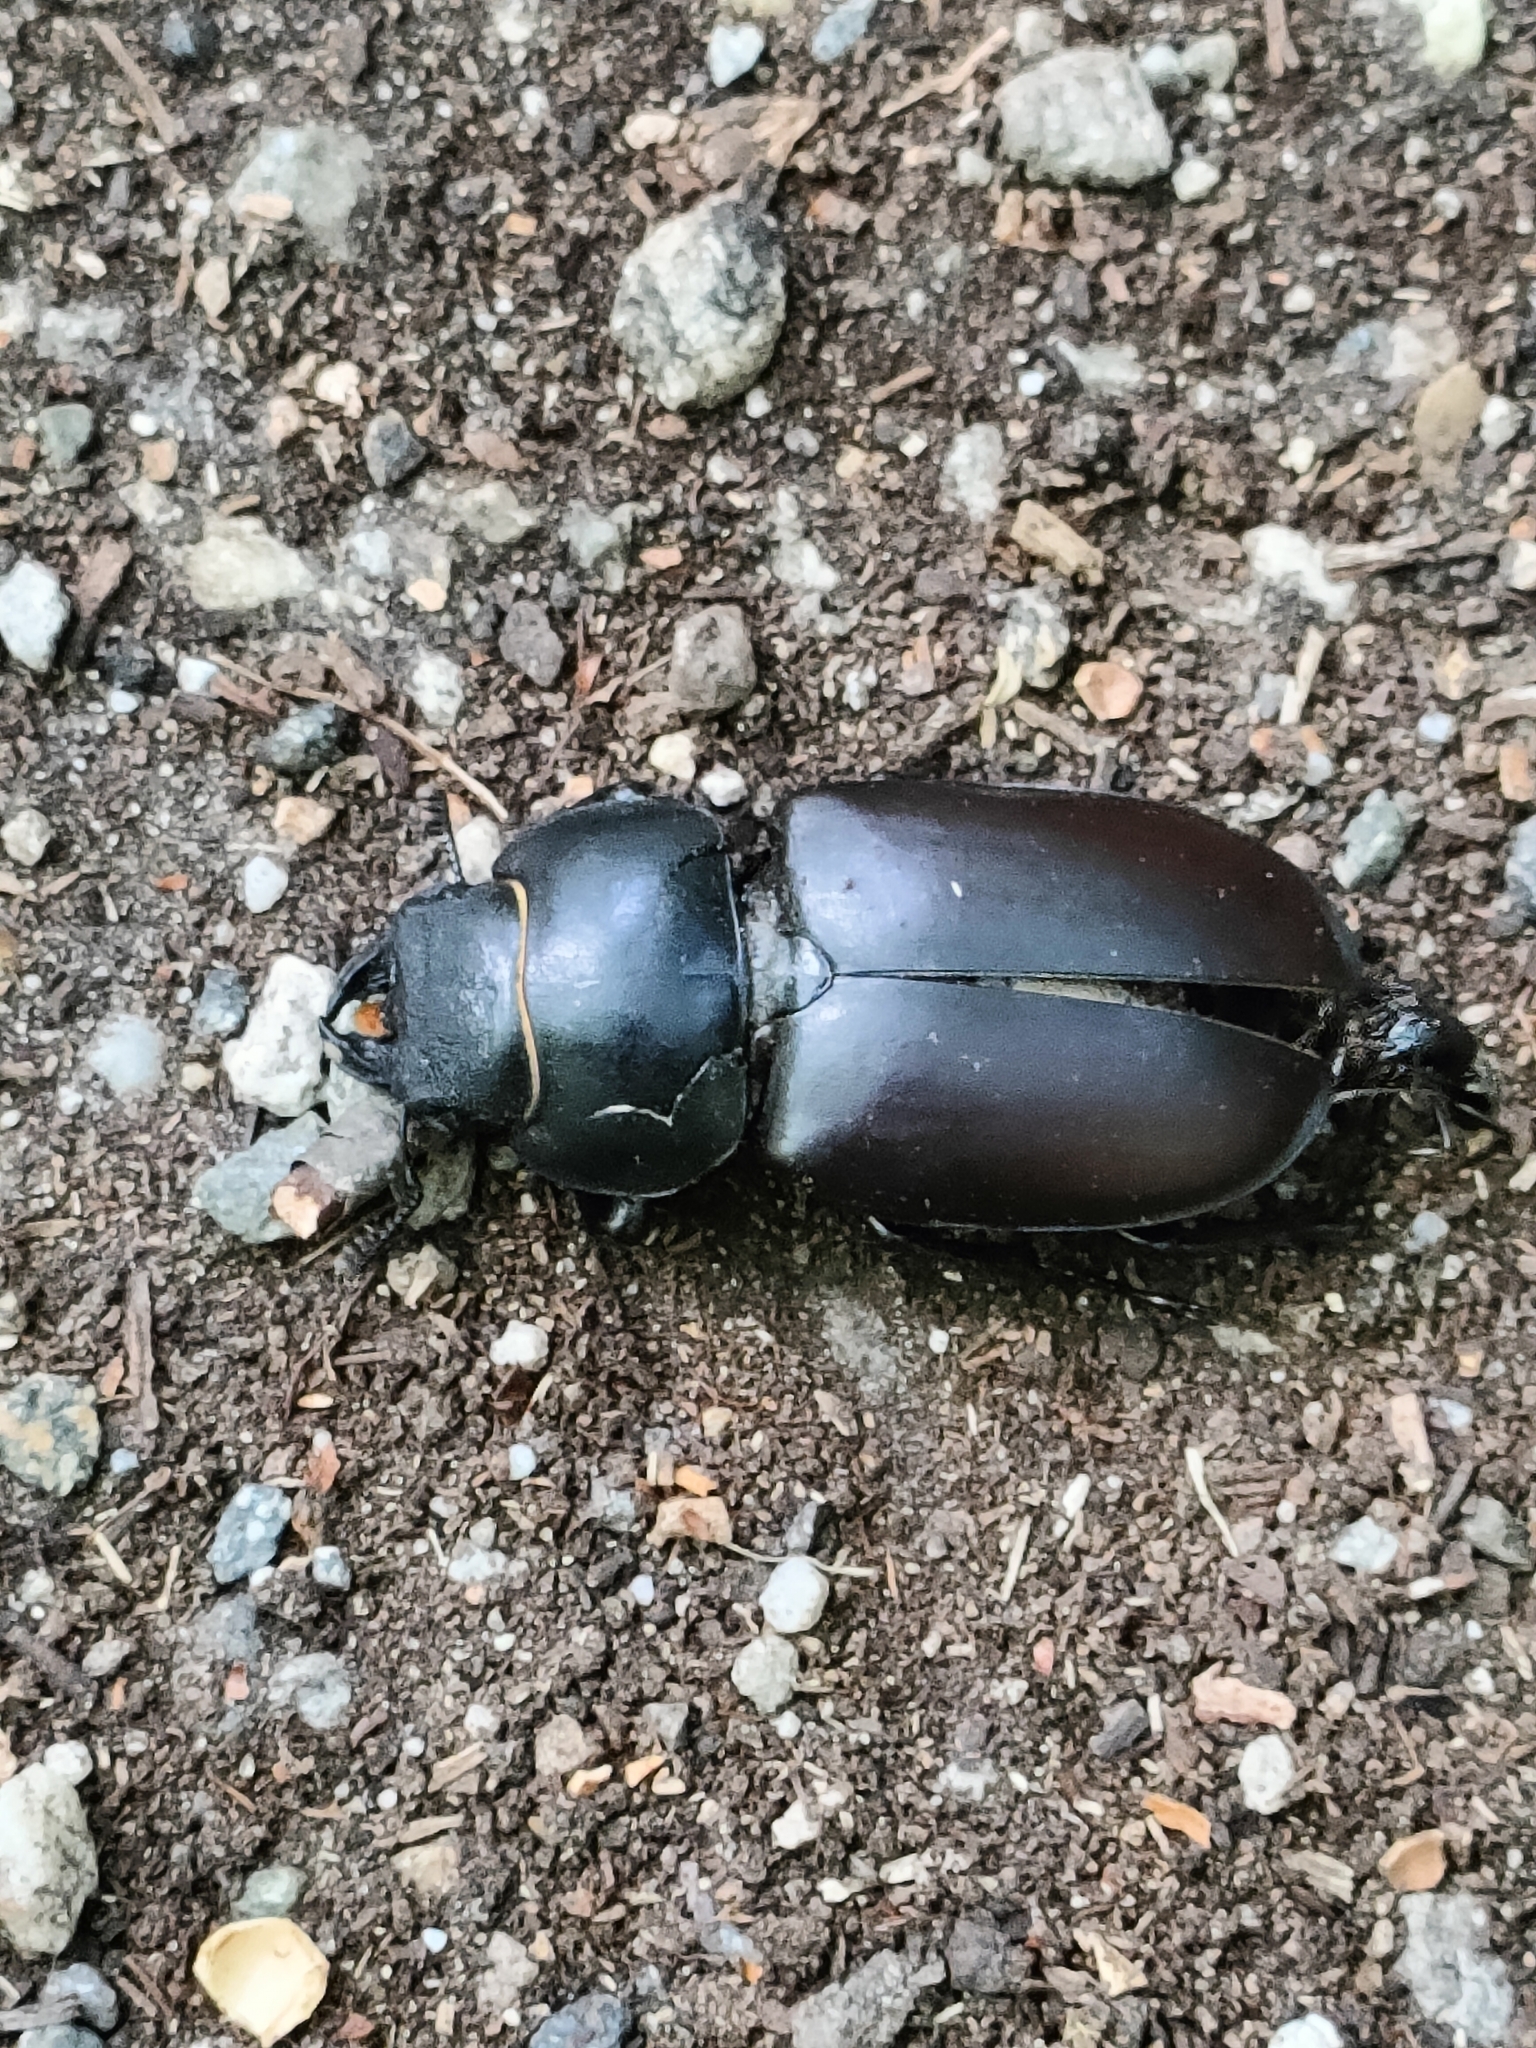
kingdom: Animalia
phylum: Arthropoda
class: Insecta
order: Coleoptera
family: Lucanidae
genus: Lucanus
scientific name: Lucanus cervus
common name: Stag beetle
